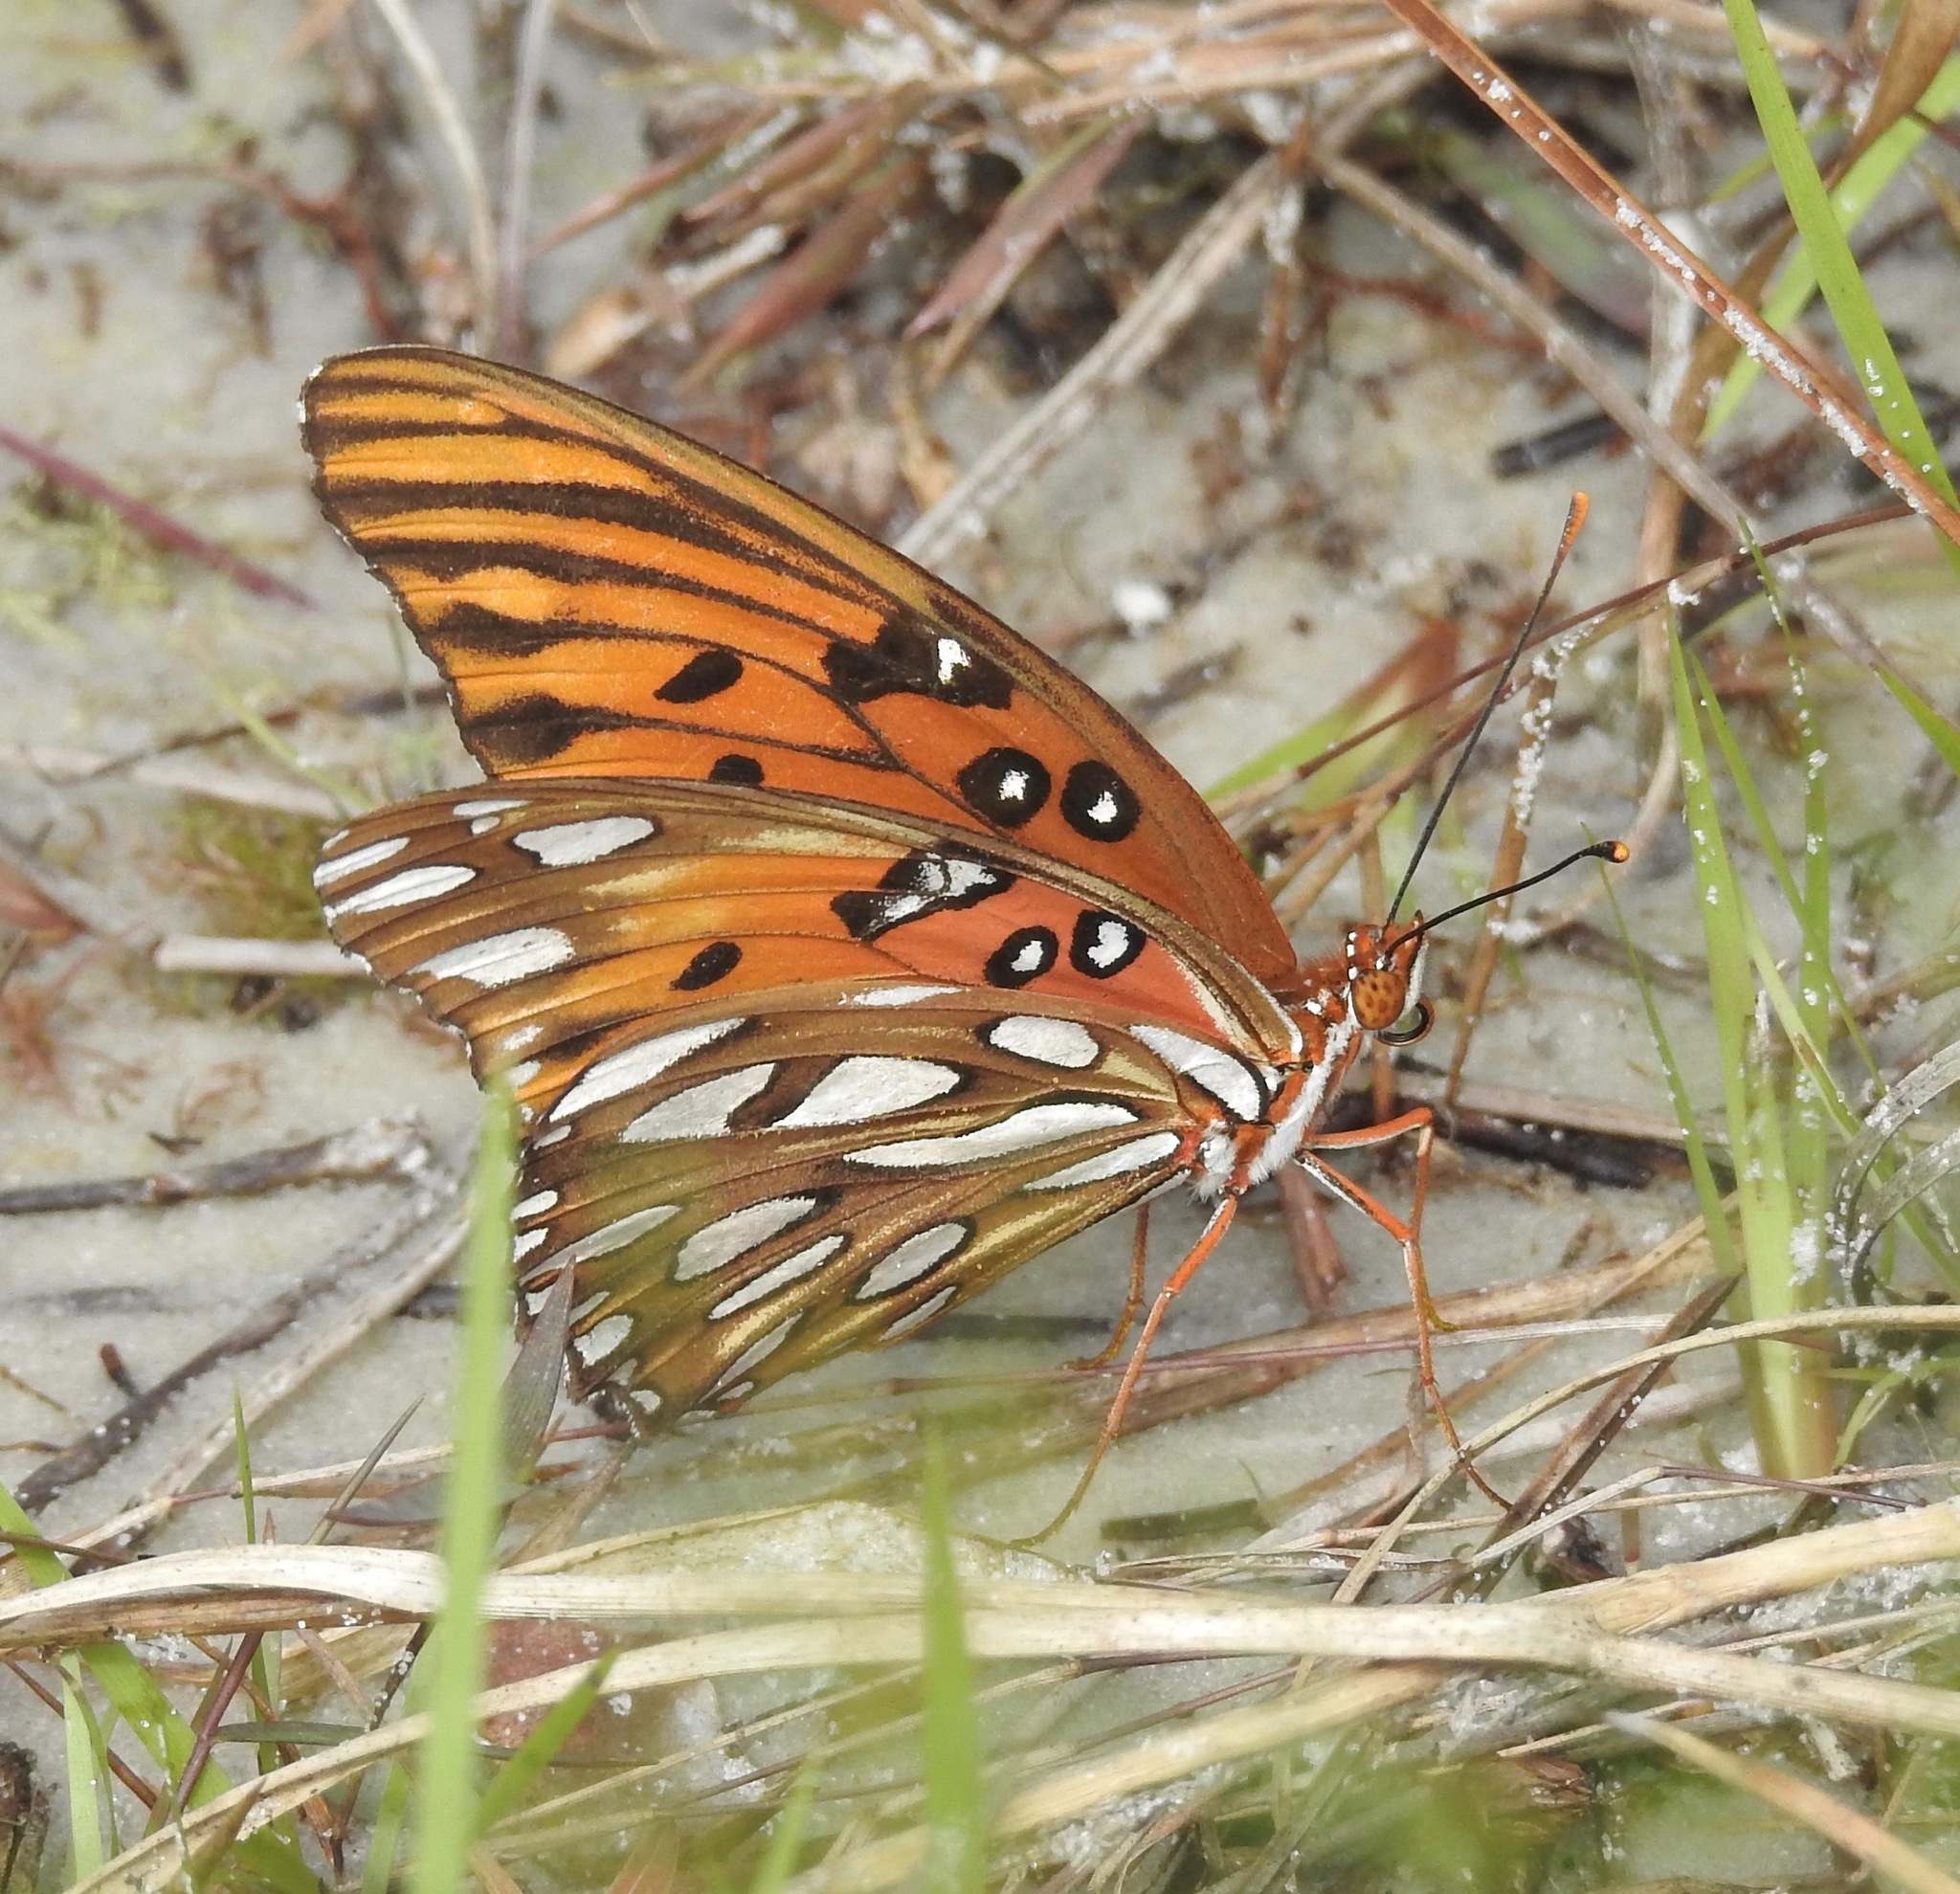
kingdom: Animalia
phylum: Arthropoda
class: Insecta
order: Lepidoptera
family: Nymphalidae
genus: Dione
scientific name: Dione vanillae
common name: Gulf fritillary
